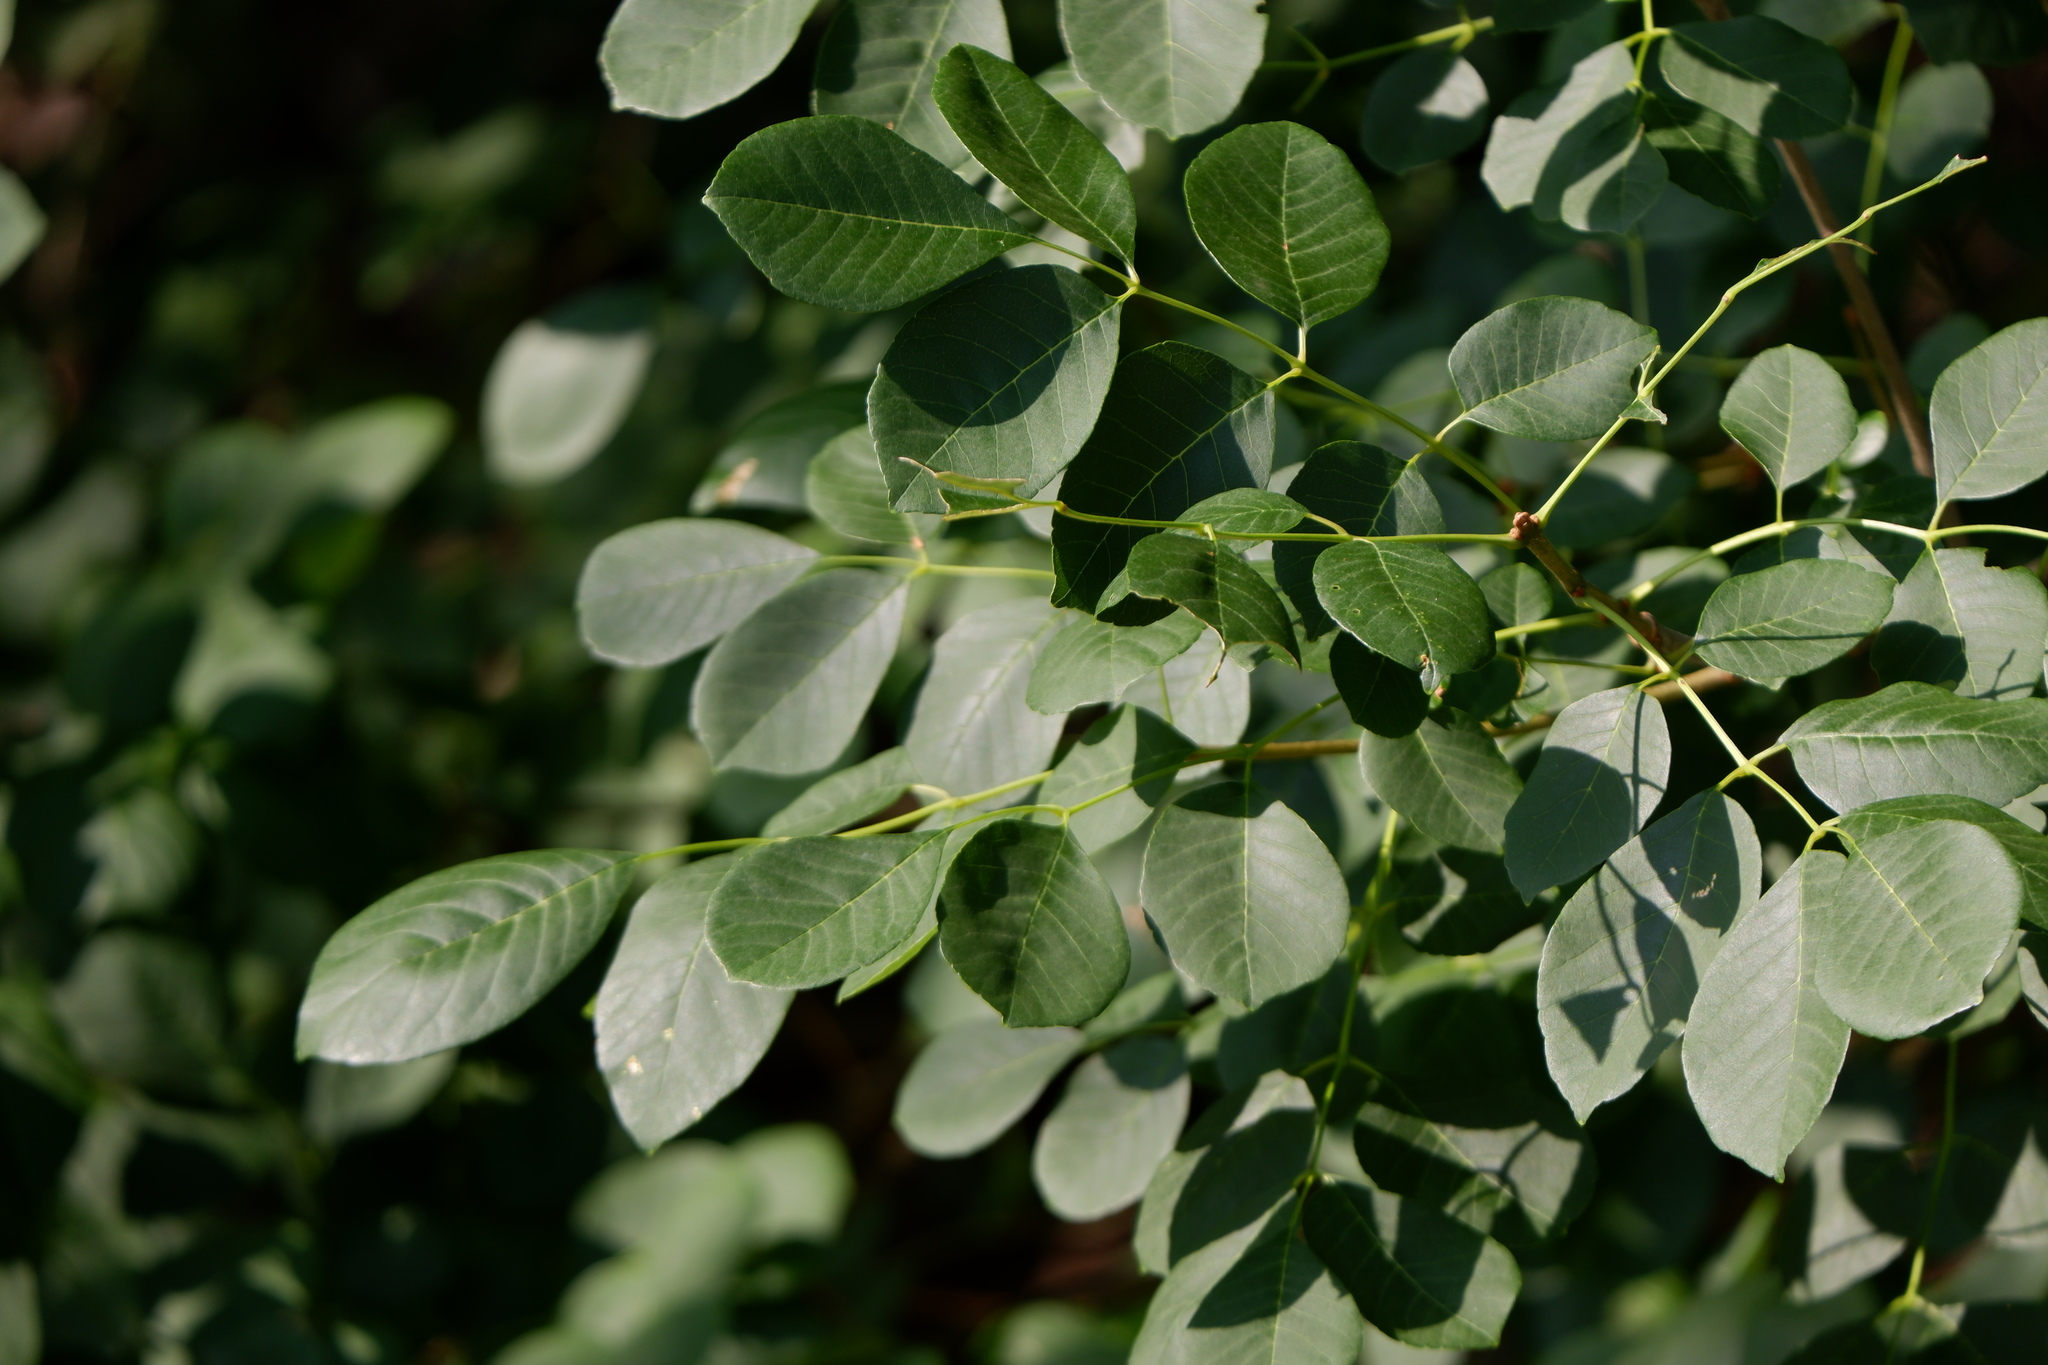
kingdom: Plantae
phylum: Tracheophyta
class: Magnoliopsida
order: Lamiales
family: Oleaceae
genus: Fraxinus
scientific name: Fraxinus albicans
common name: Texas ash
